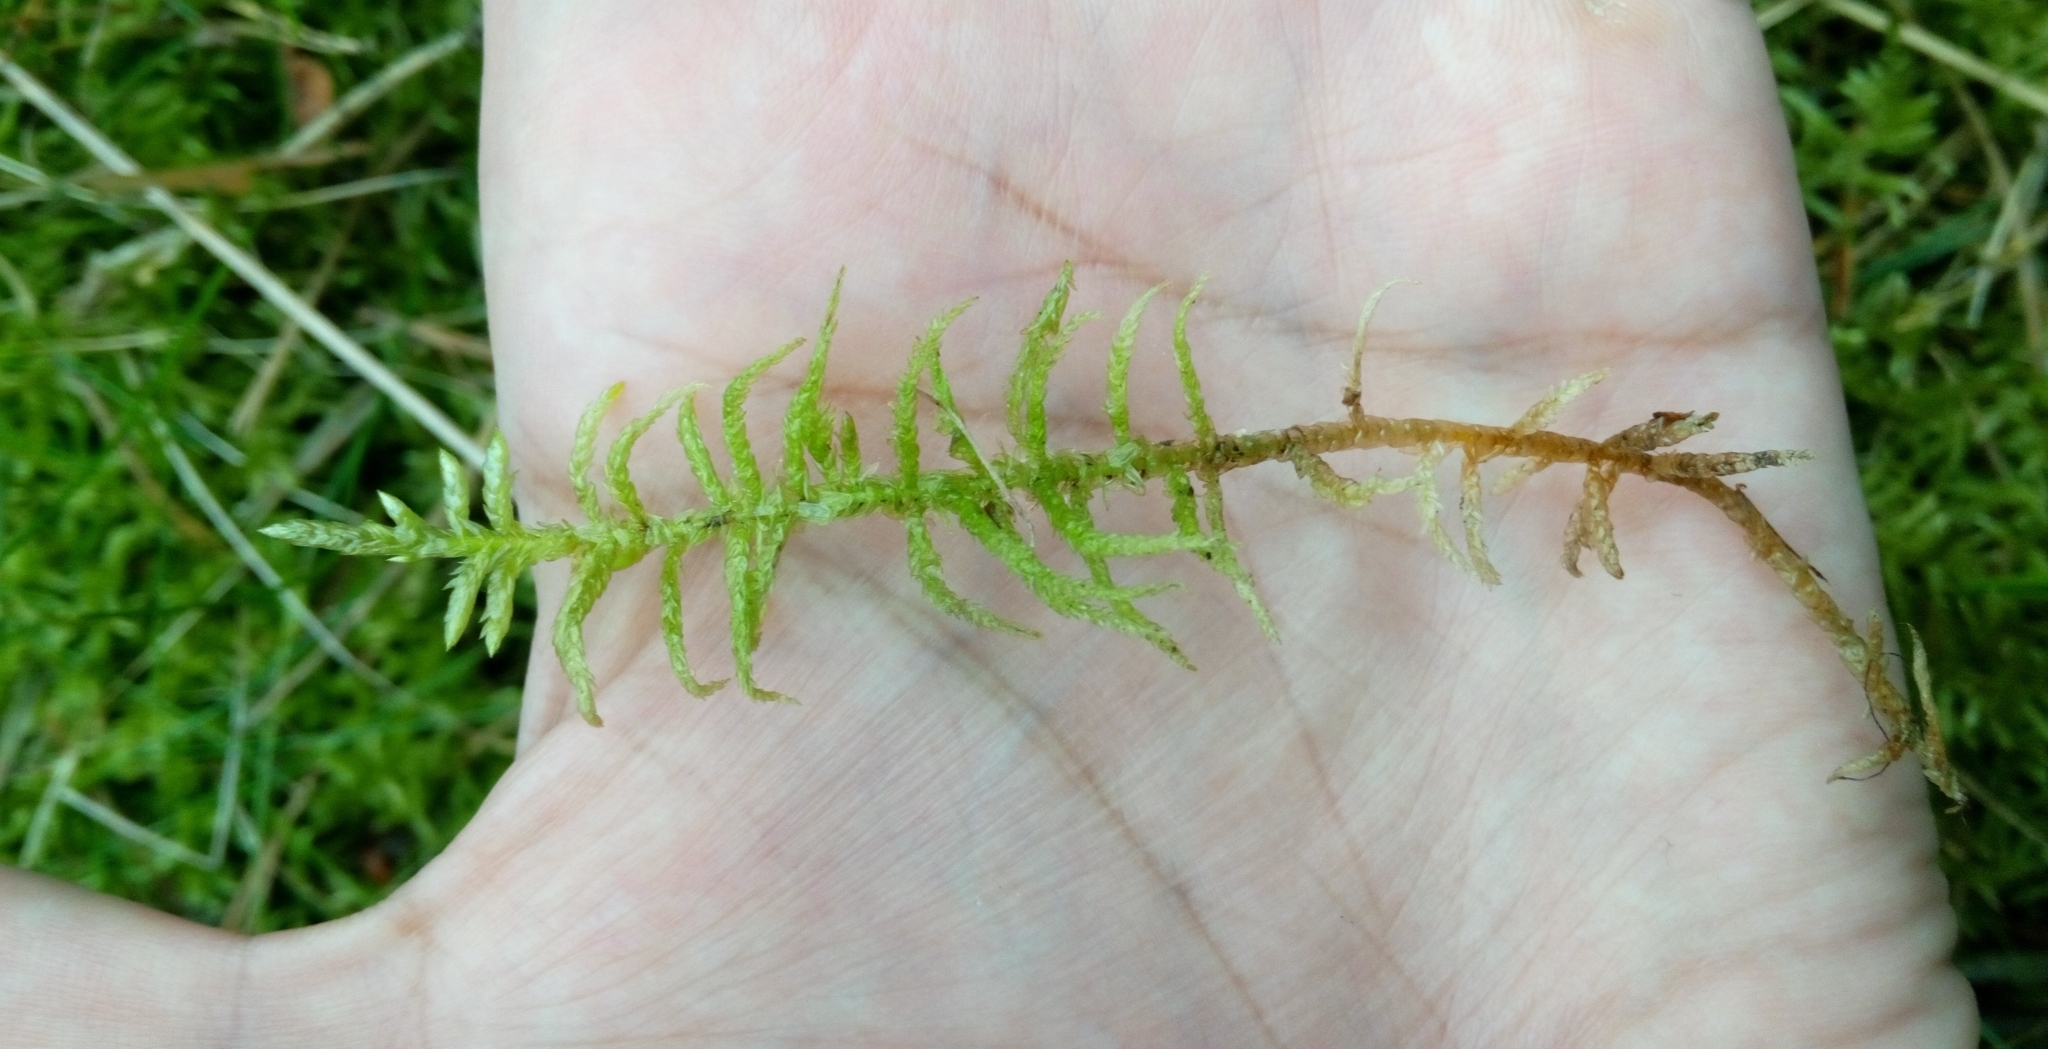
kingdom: Plantae
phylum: Bryophyta
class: Bryopsida
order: Hypnales
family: Brachytheciaceae
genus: Pseudoscleropodium
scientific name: Pseudoscleropodium purum
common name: Neat feather-moss
